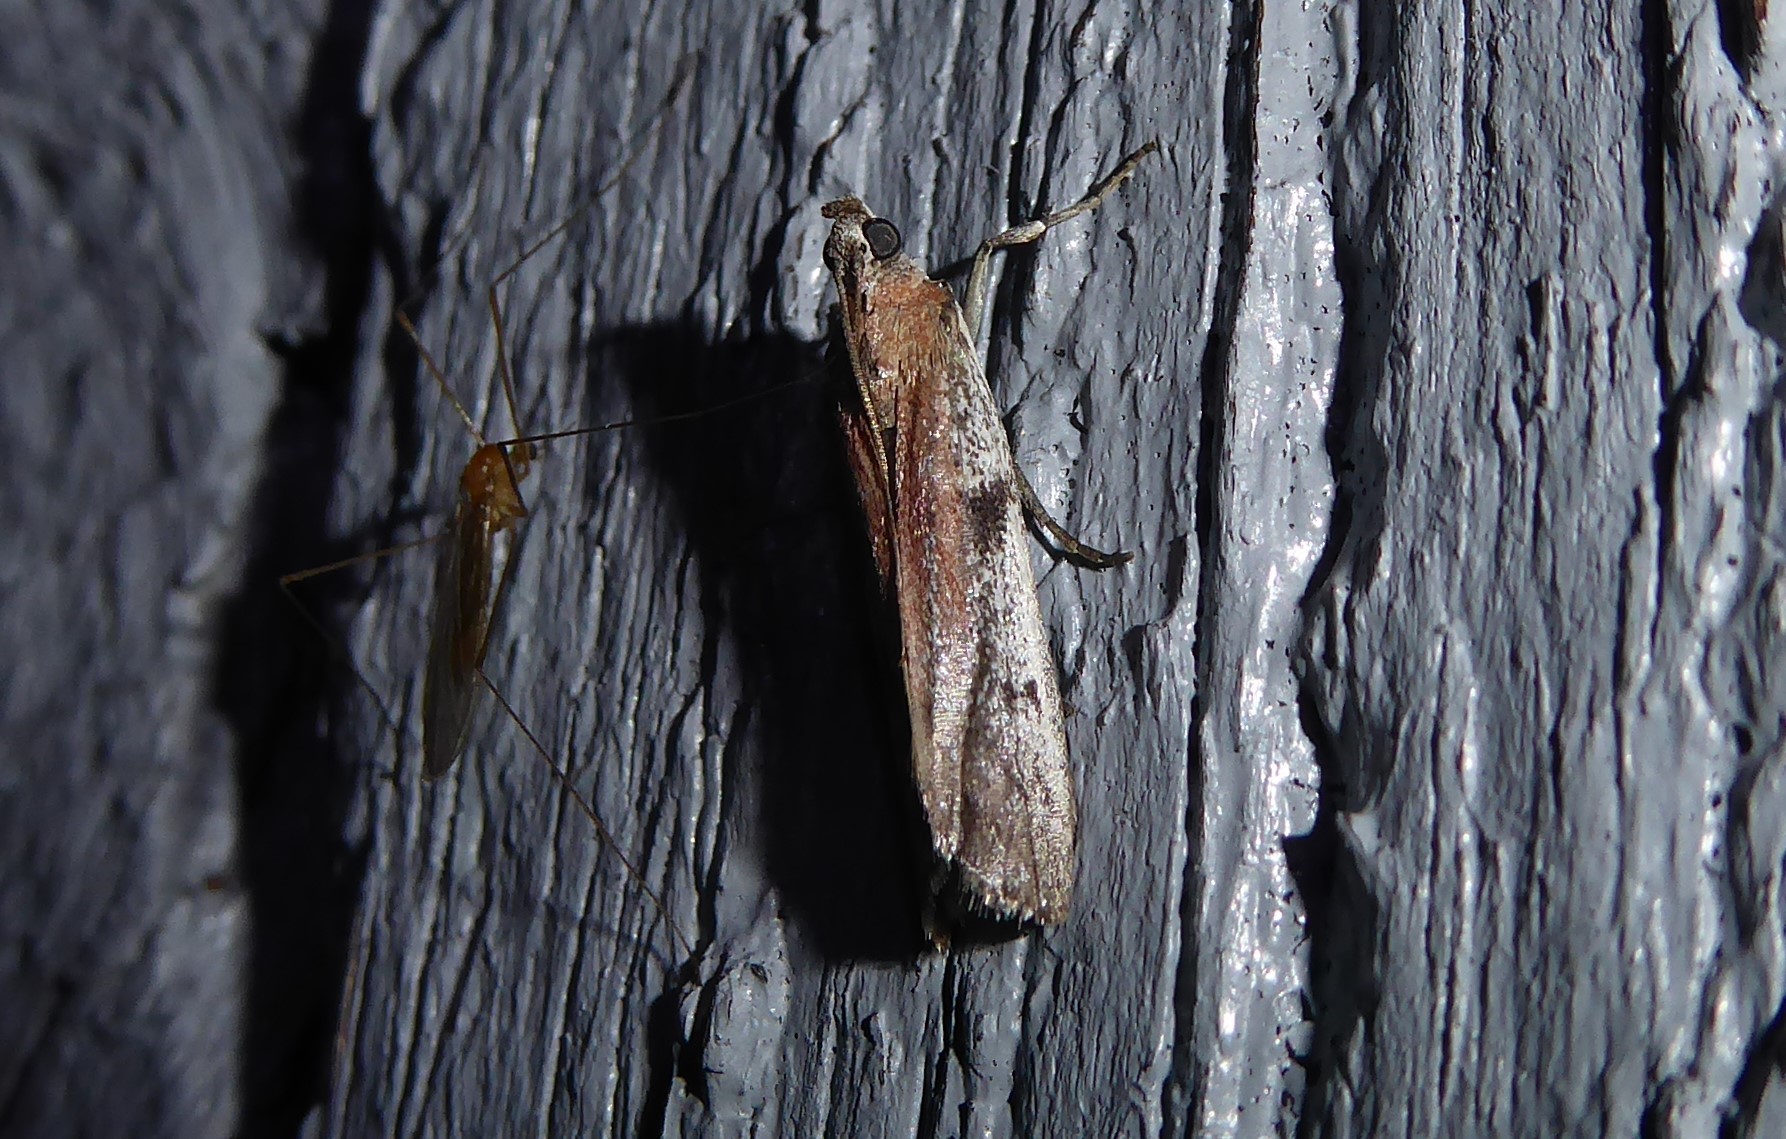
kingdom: Animalia
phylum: Arthropoda
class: Insecta
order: Lepidoptera
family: Pyralidae
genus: Patagoniodes
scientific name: Patagoniodes farinaria
